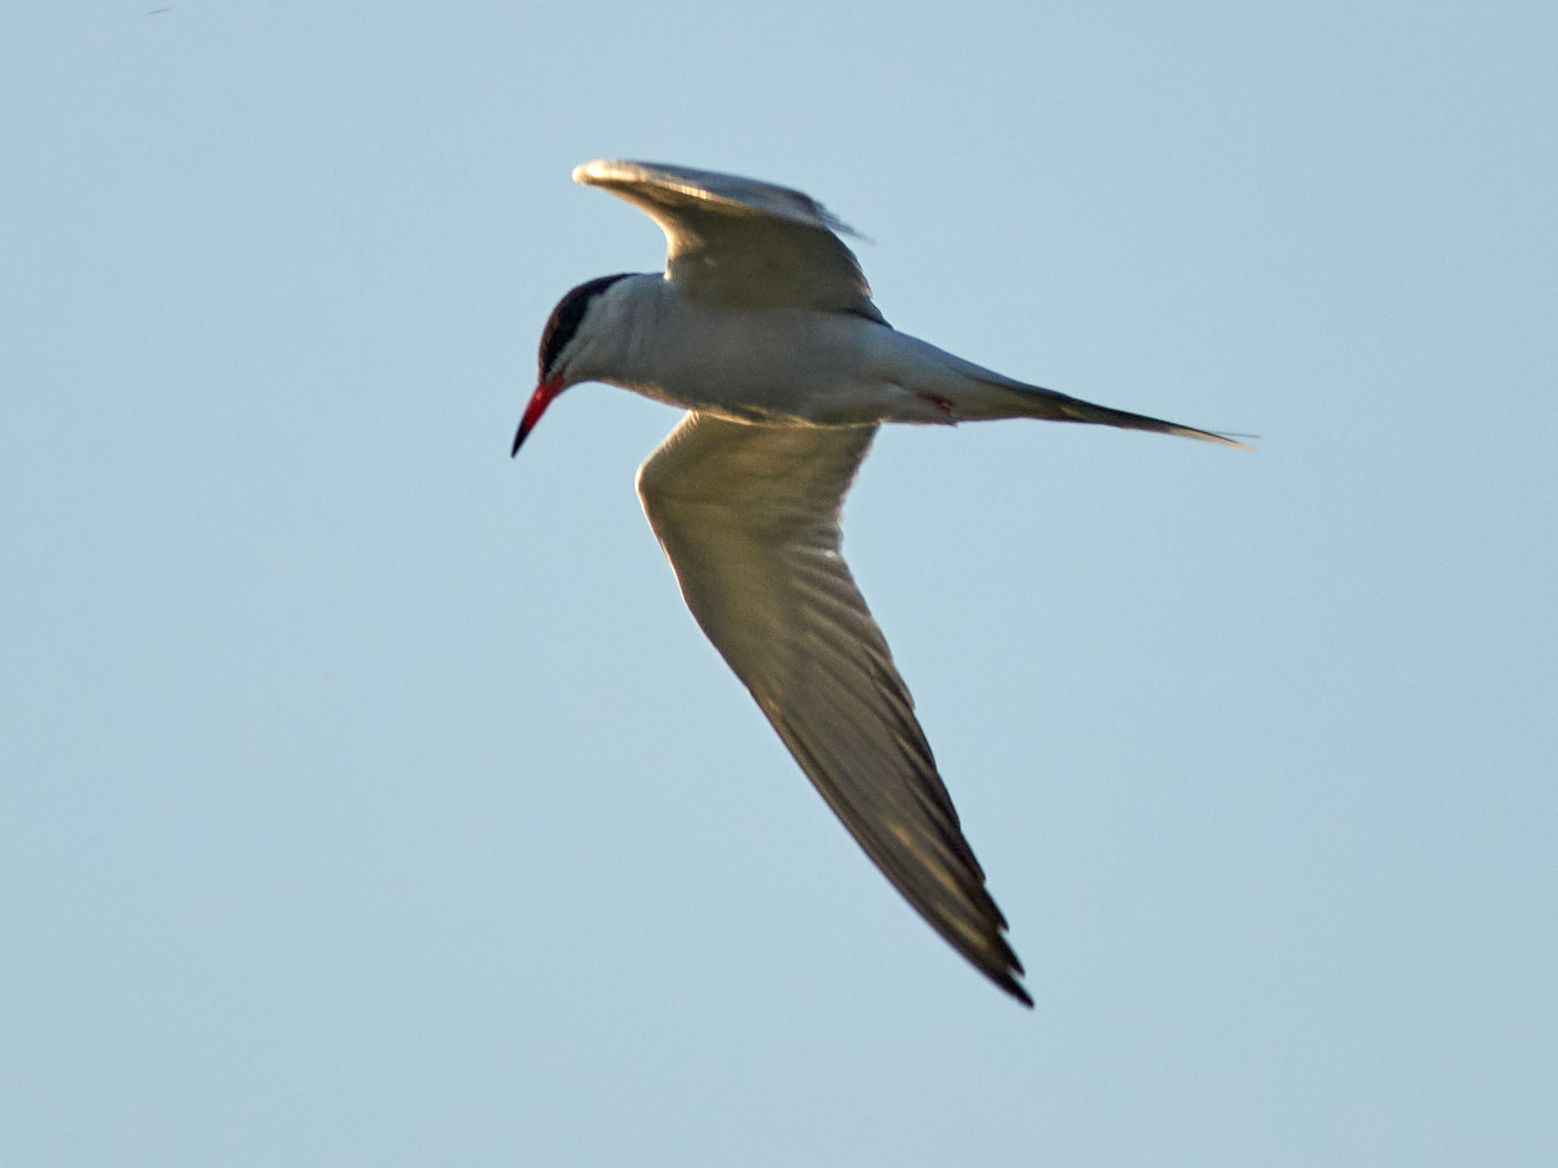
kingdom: Animalia
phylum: Chordata
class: Aves
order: Charadriiformes
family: Laridae
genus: Sterna
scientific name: Sterna hirundo
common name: Common tern
